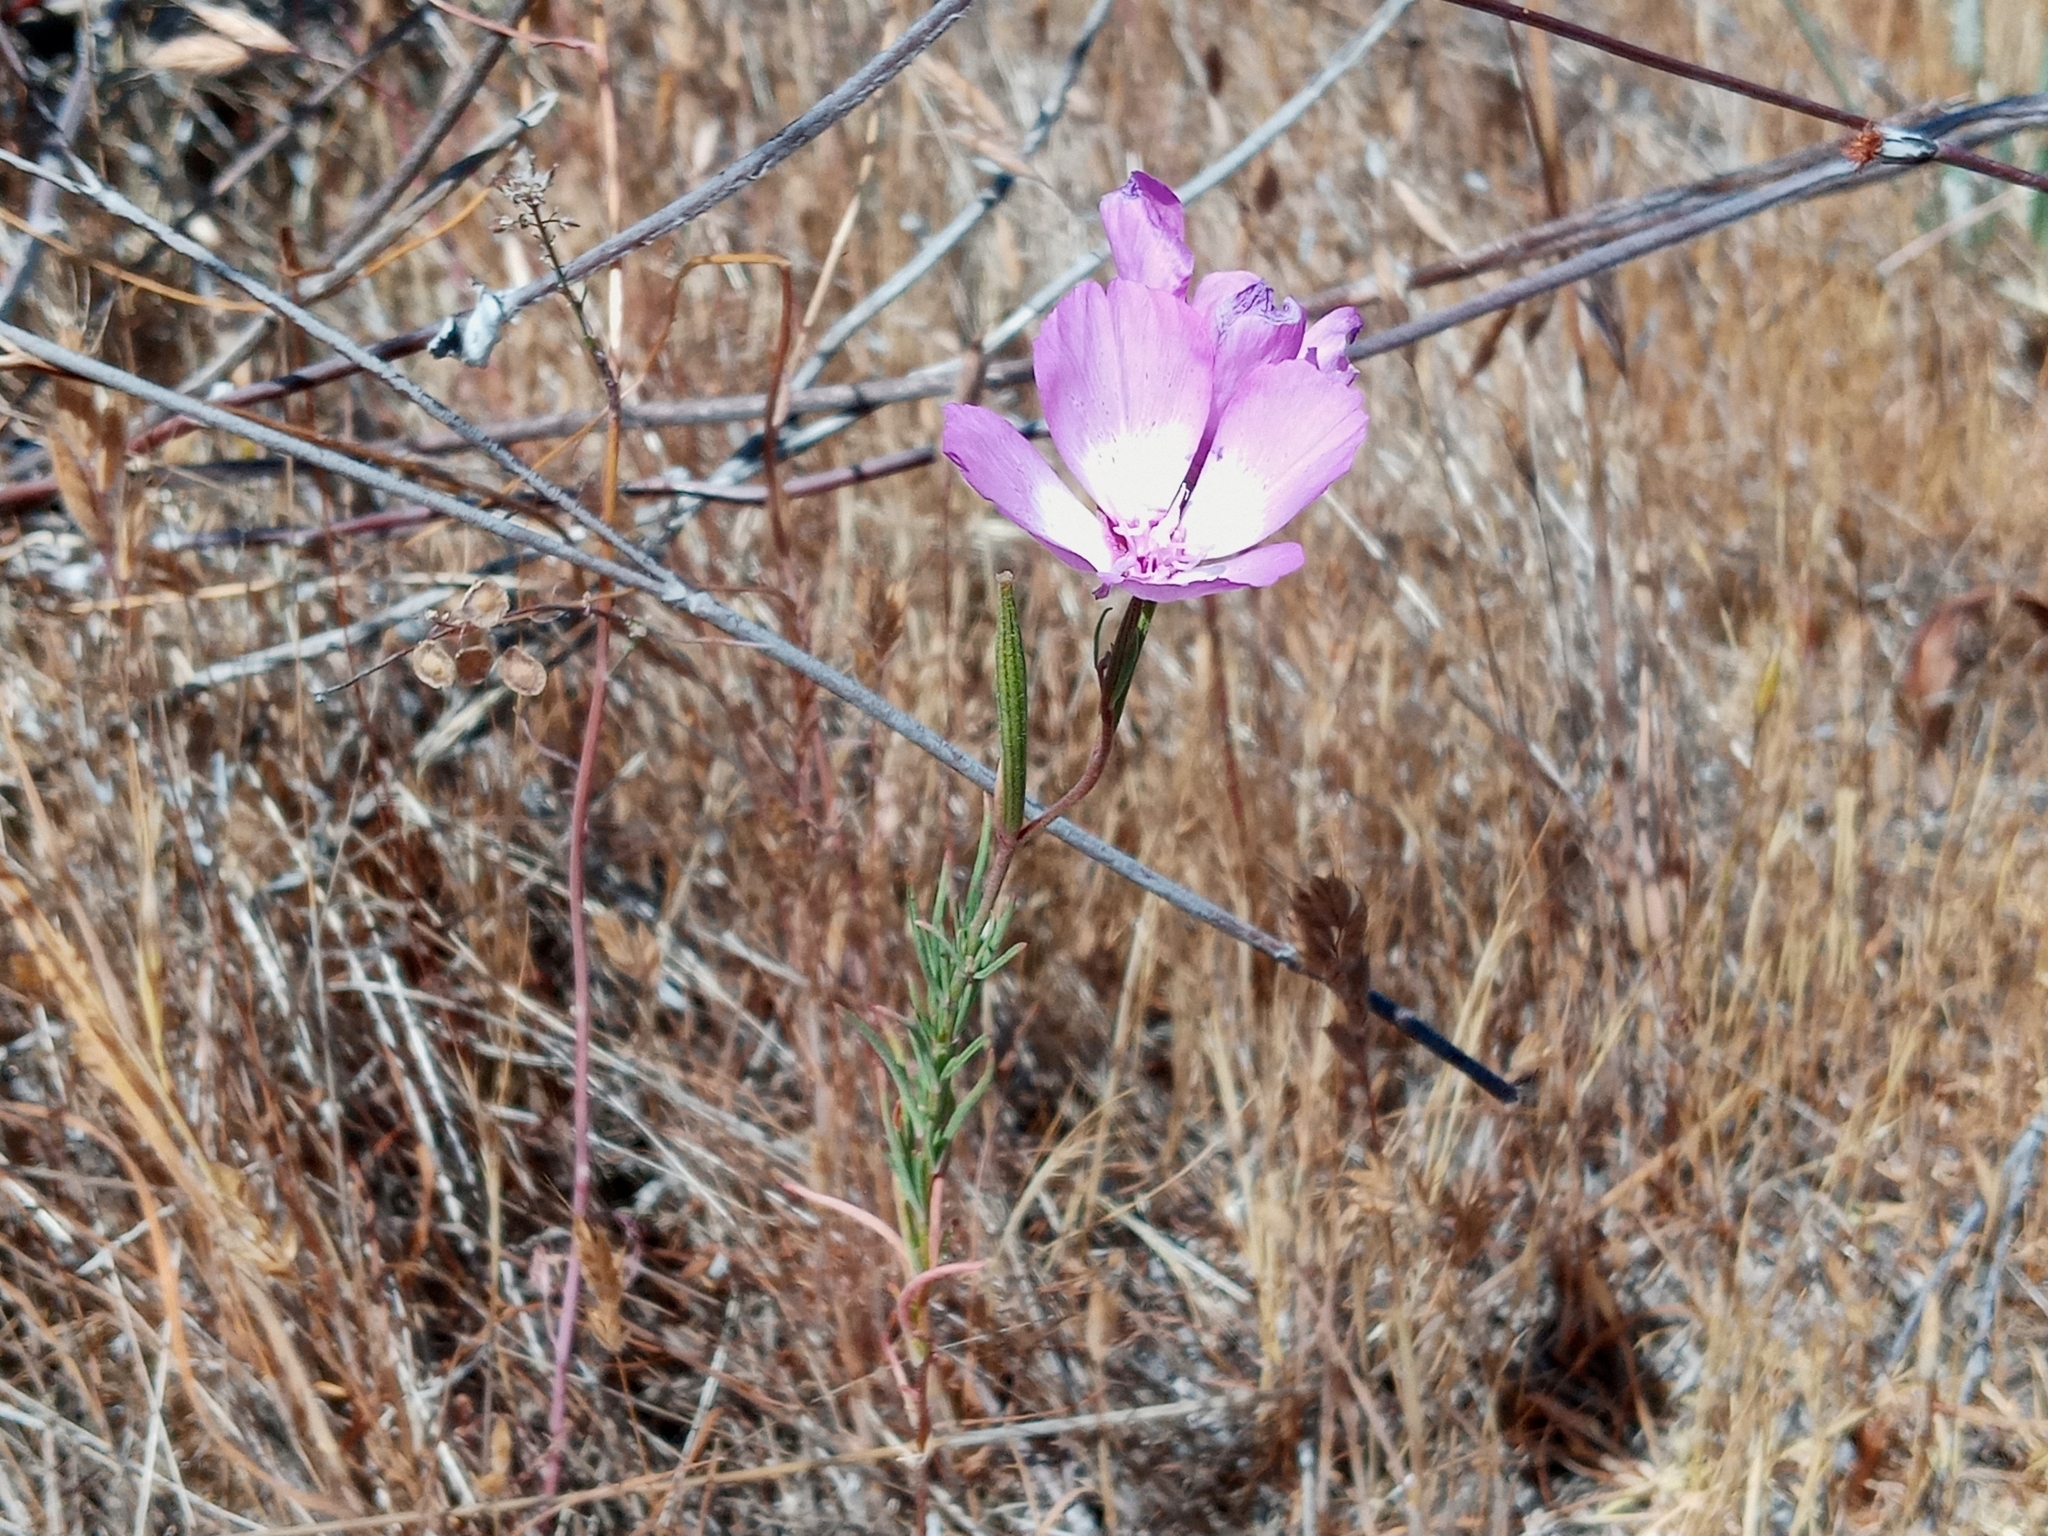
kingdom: Plantae
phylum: Tracheophyta
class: Magnoliopsida
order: Myrtales
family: Onagraceae
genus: Clarkia
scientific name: Clarkia cylindrica
